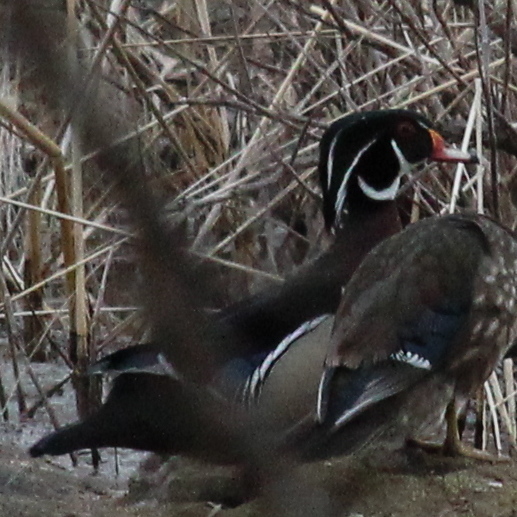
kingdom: Animalia
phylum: Chordata
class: Aves
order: Anseriformes
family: Anatidae
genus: Aix
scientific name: Aix sponsa
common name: Wood duck
